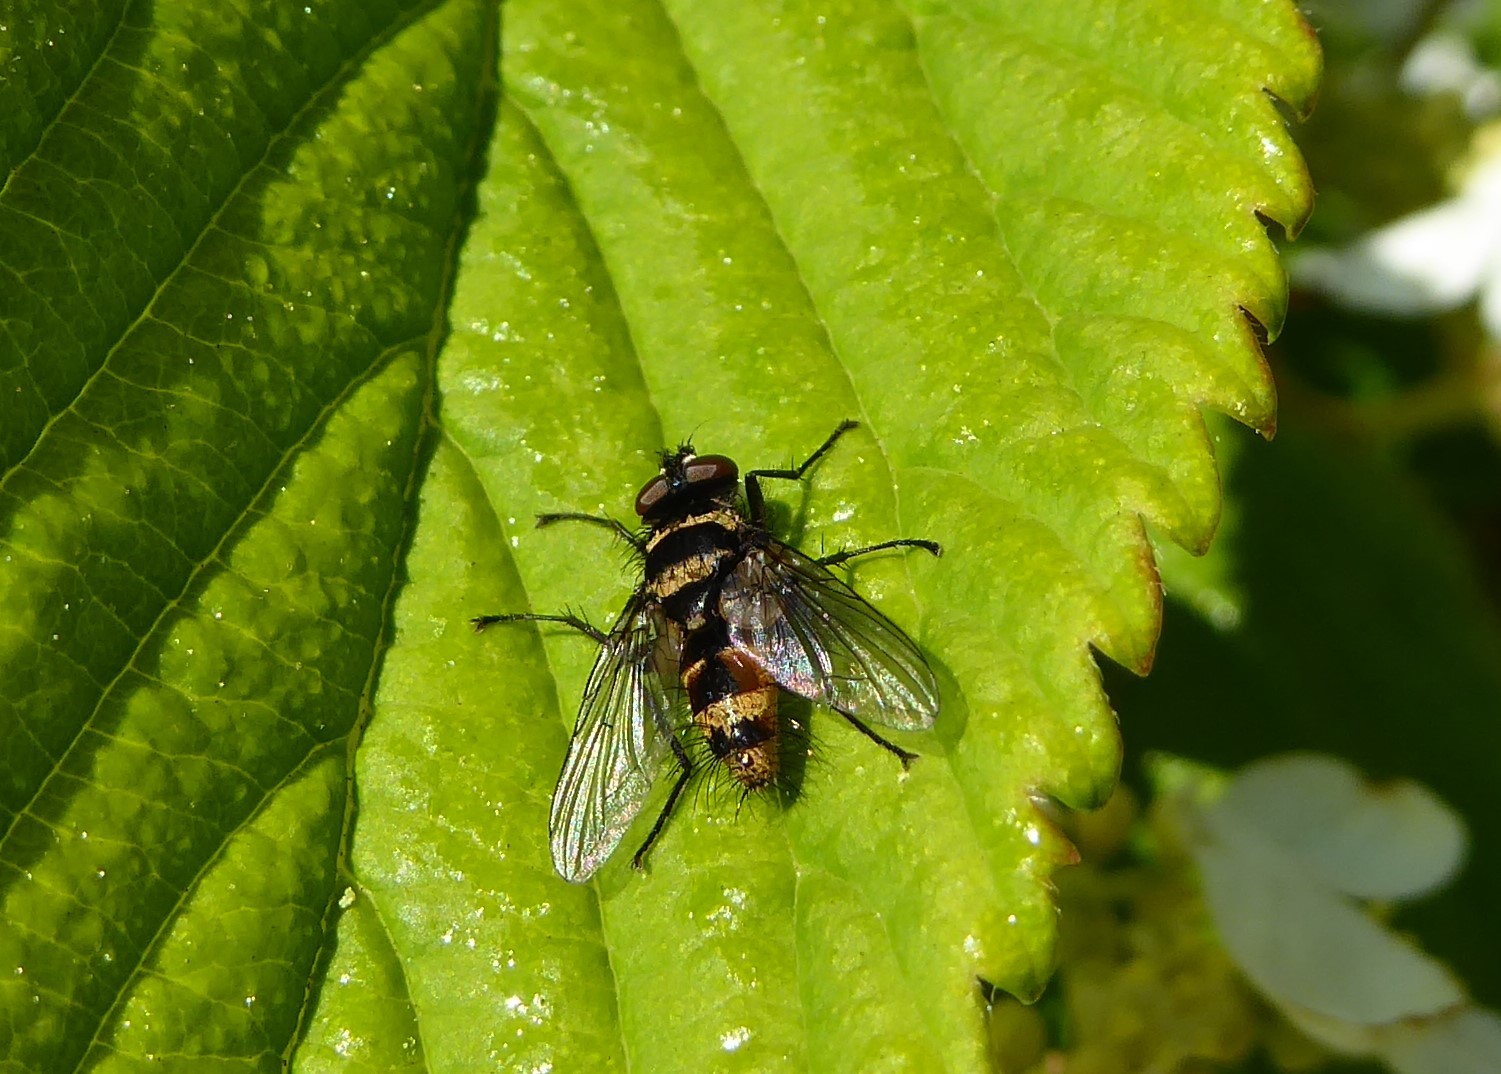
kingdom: Animalia
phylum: Arthropoda
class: Insecta
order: Diptera
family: Tachinidae
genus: Trigonospila
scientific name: Trigonospila brevifacies
